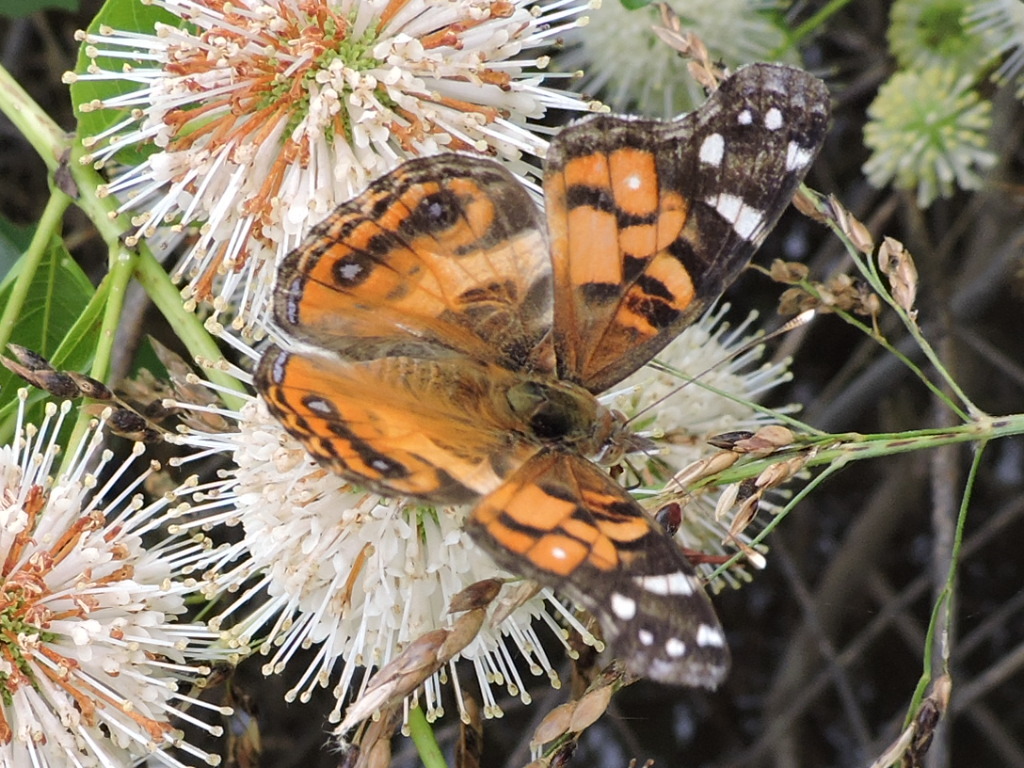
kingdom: Animalia
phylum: Arthropoda
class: Insecta
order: Lepidoptera
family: Nymphalidae
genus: Vanessa
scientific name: Vanessa virginiensis
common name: American lady
